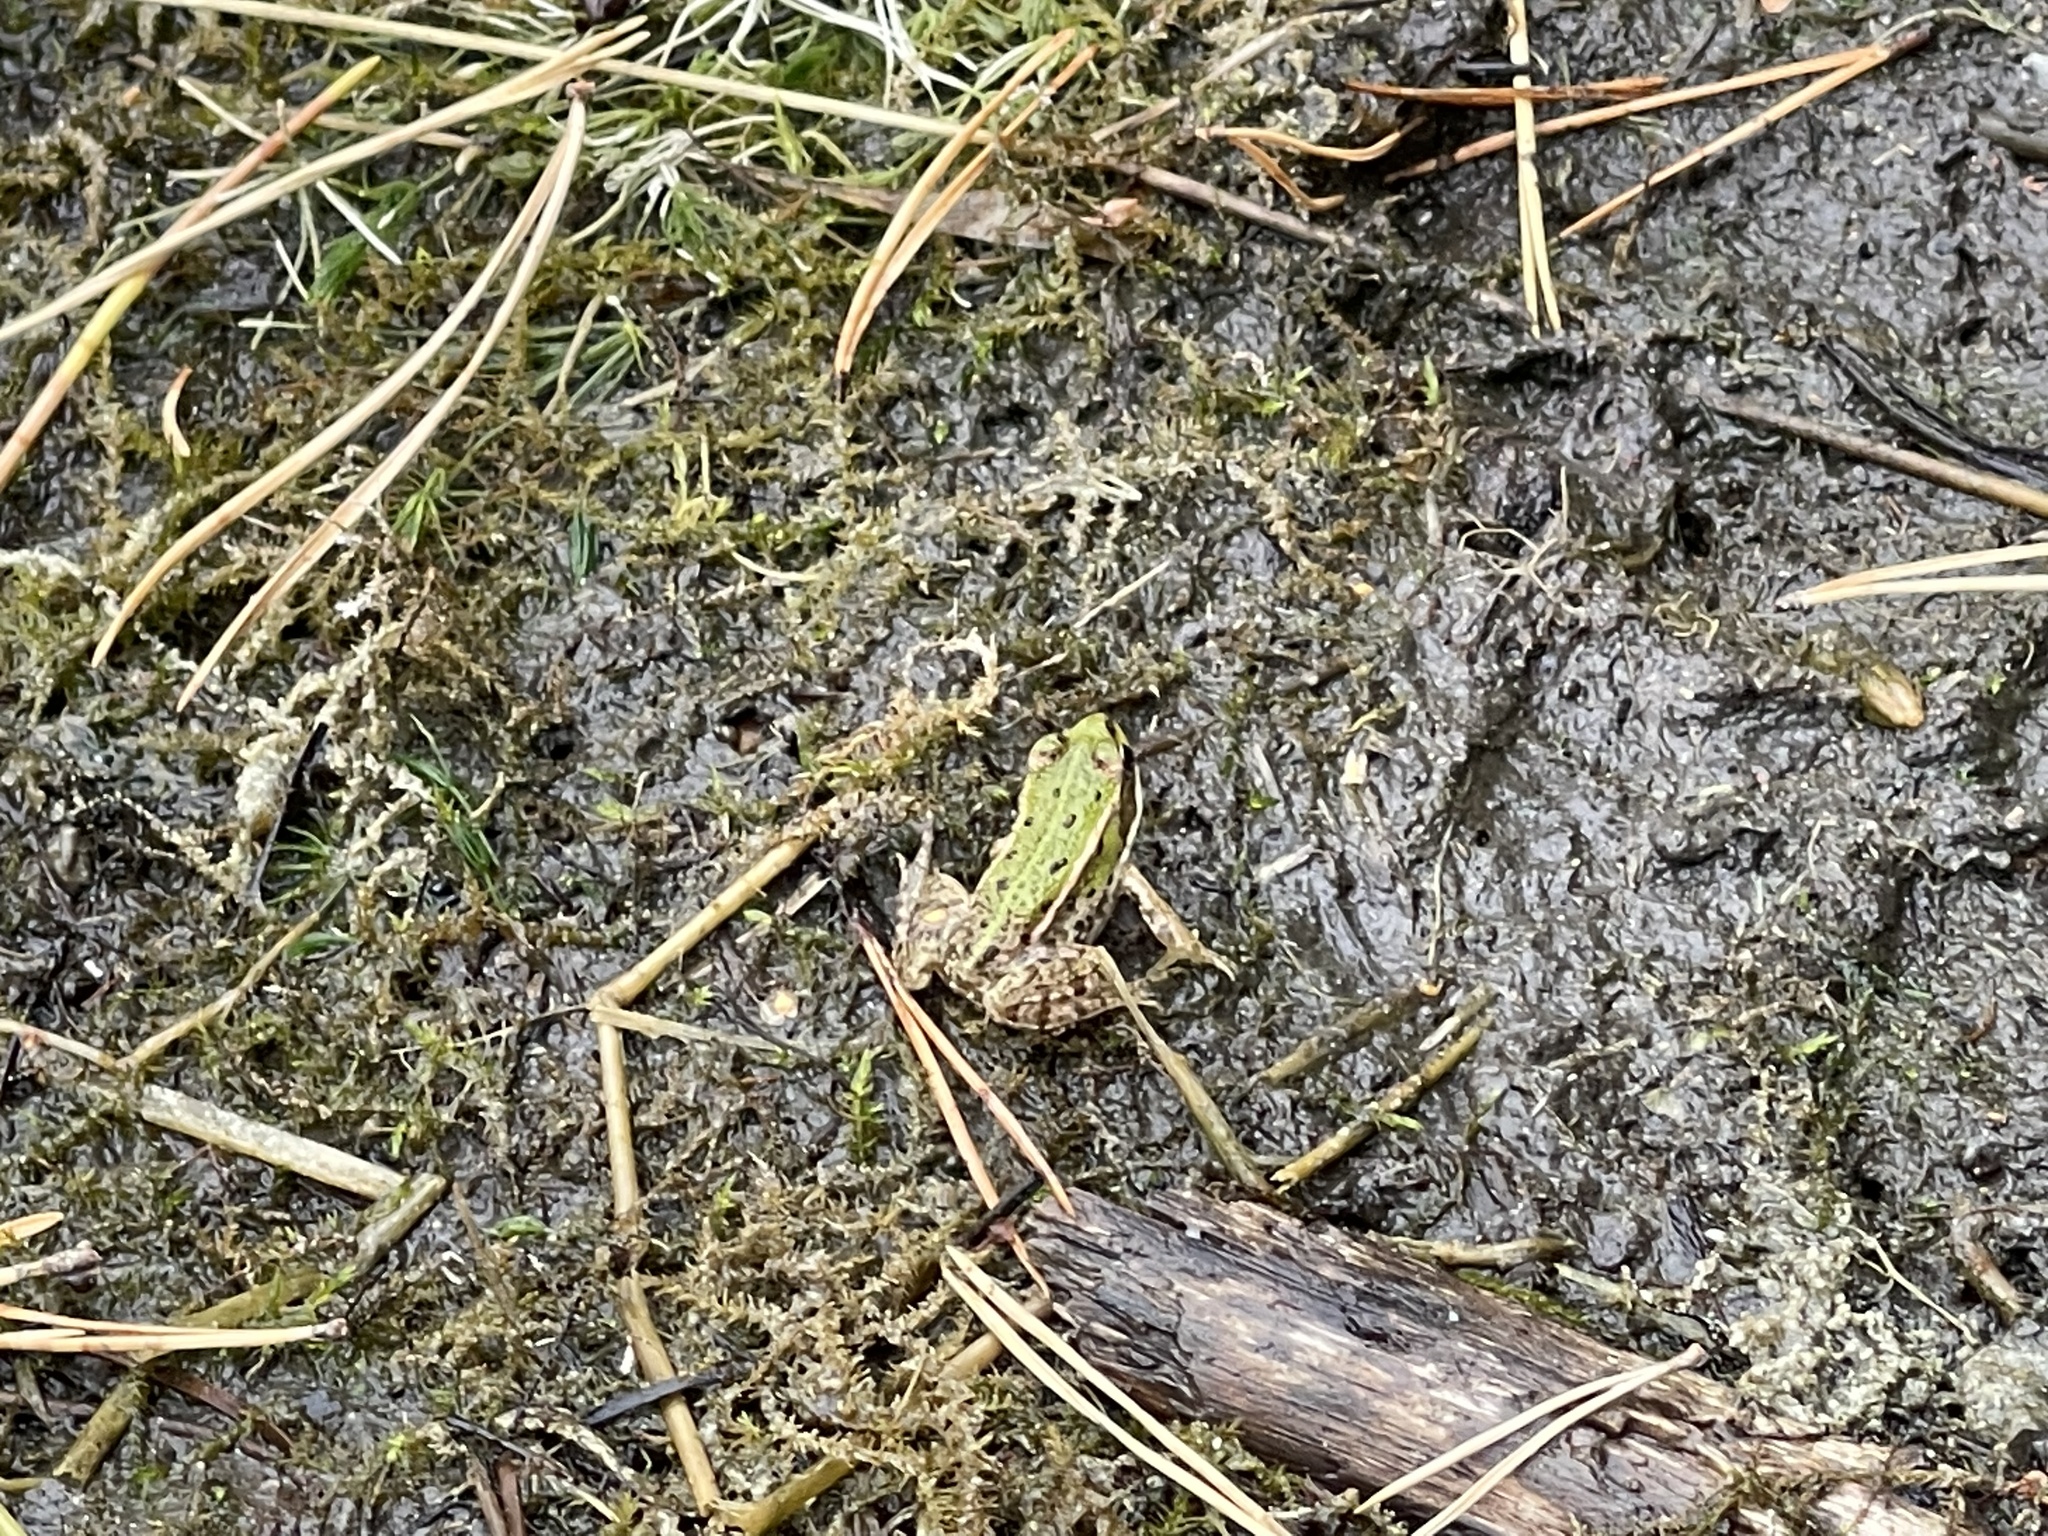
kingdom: Animalia
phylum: Chordata
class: Amphibia
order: Anura
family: Ranidae
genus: Pelophylax
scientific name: Pelophylax
